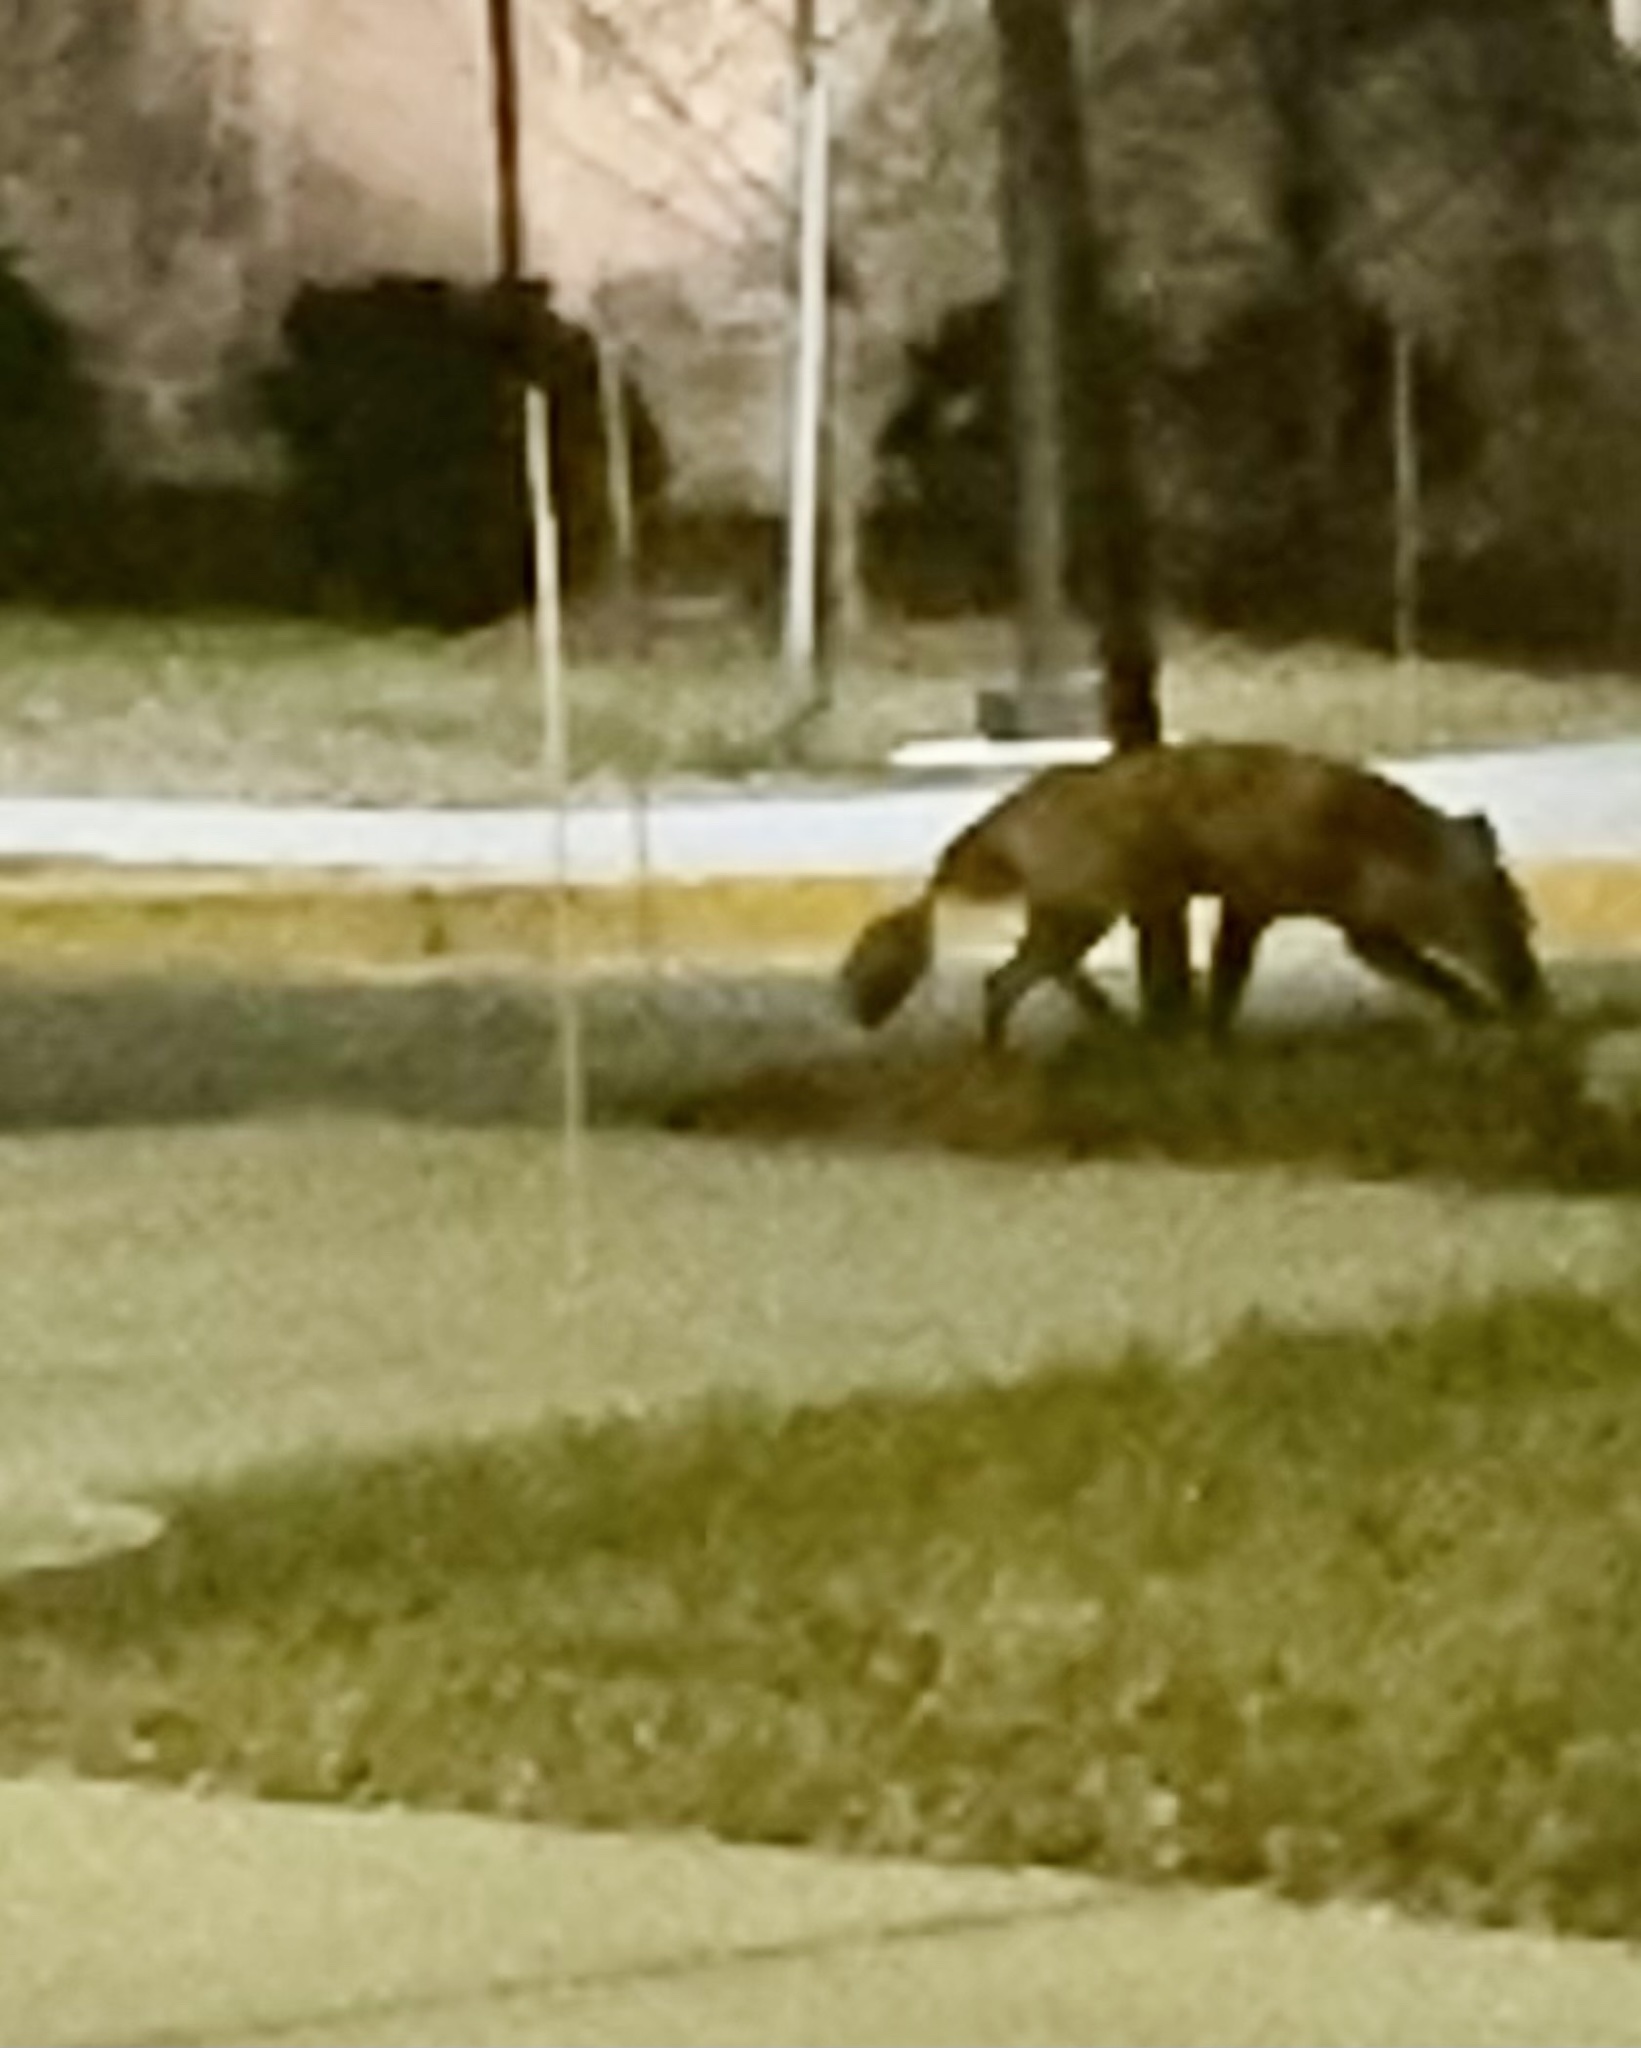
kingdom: Animalia
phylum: Chordata
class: Mammalia
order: Carnivora
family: Canidae
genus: Vulpes
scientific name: Vulpes vulpes
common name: Red fox
